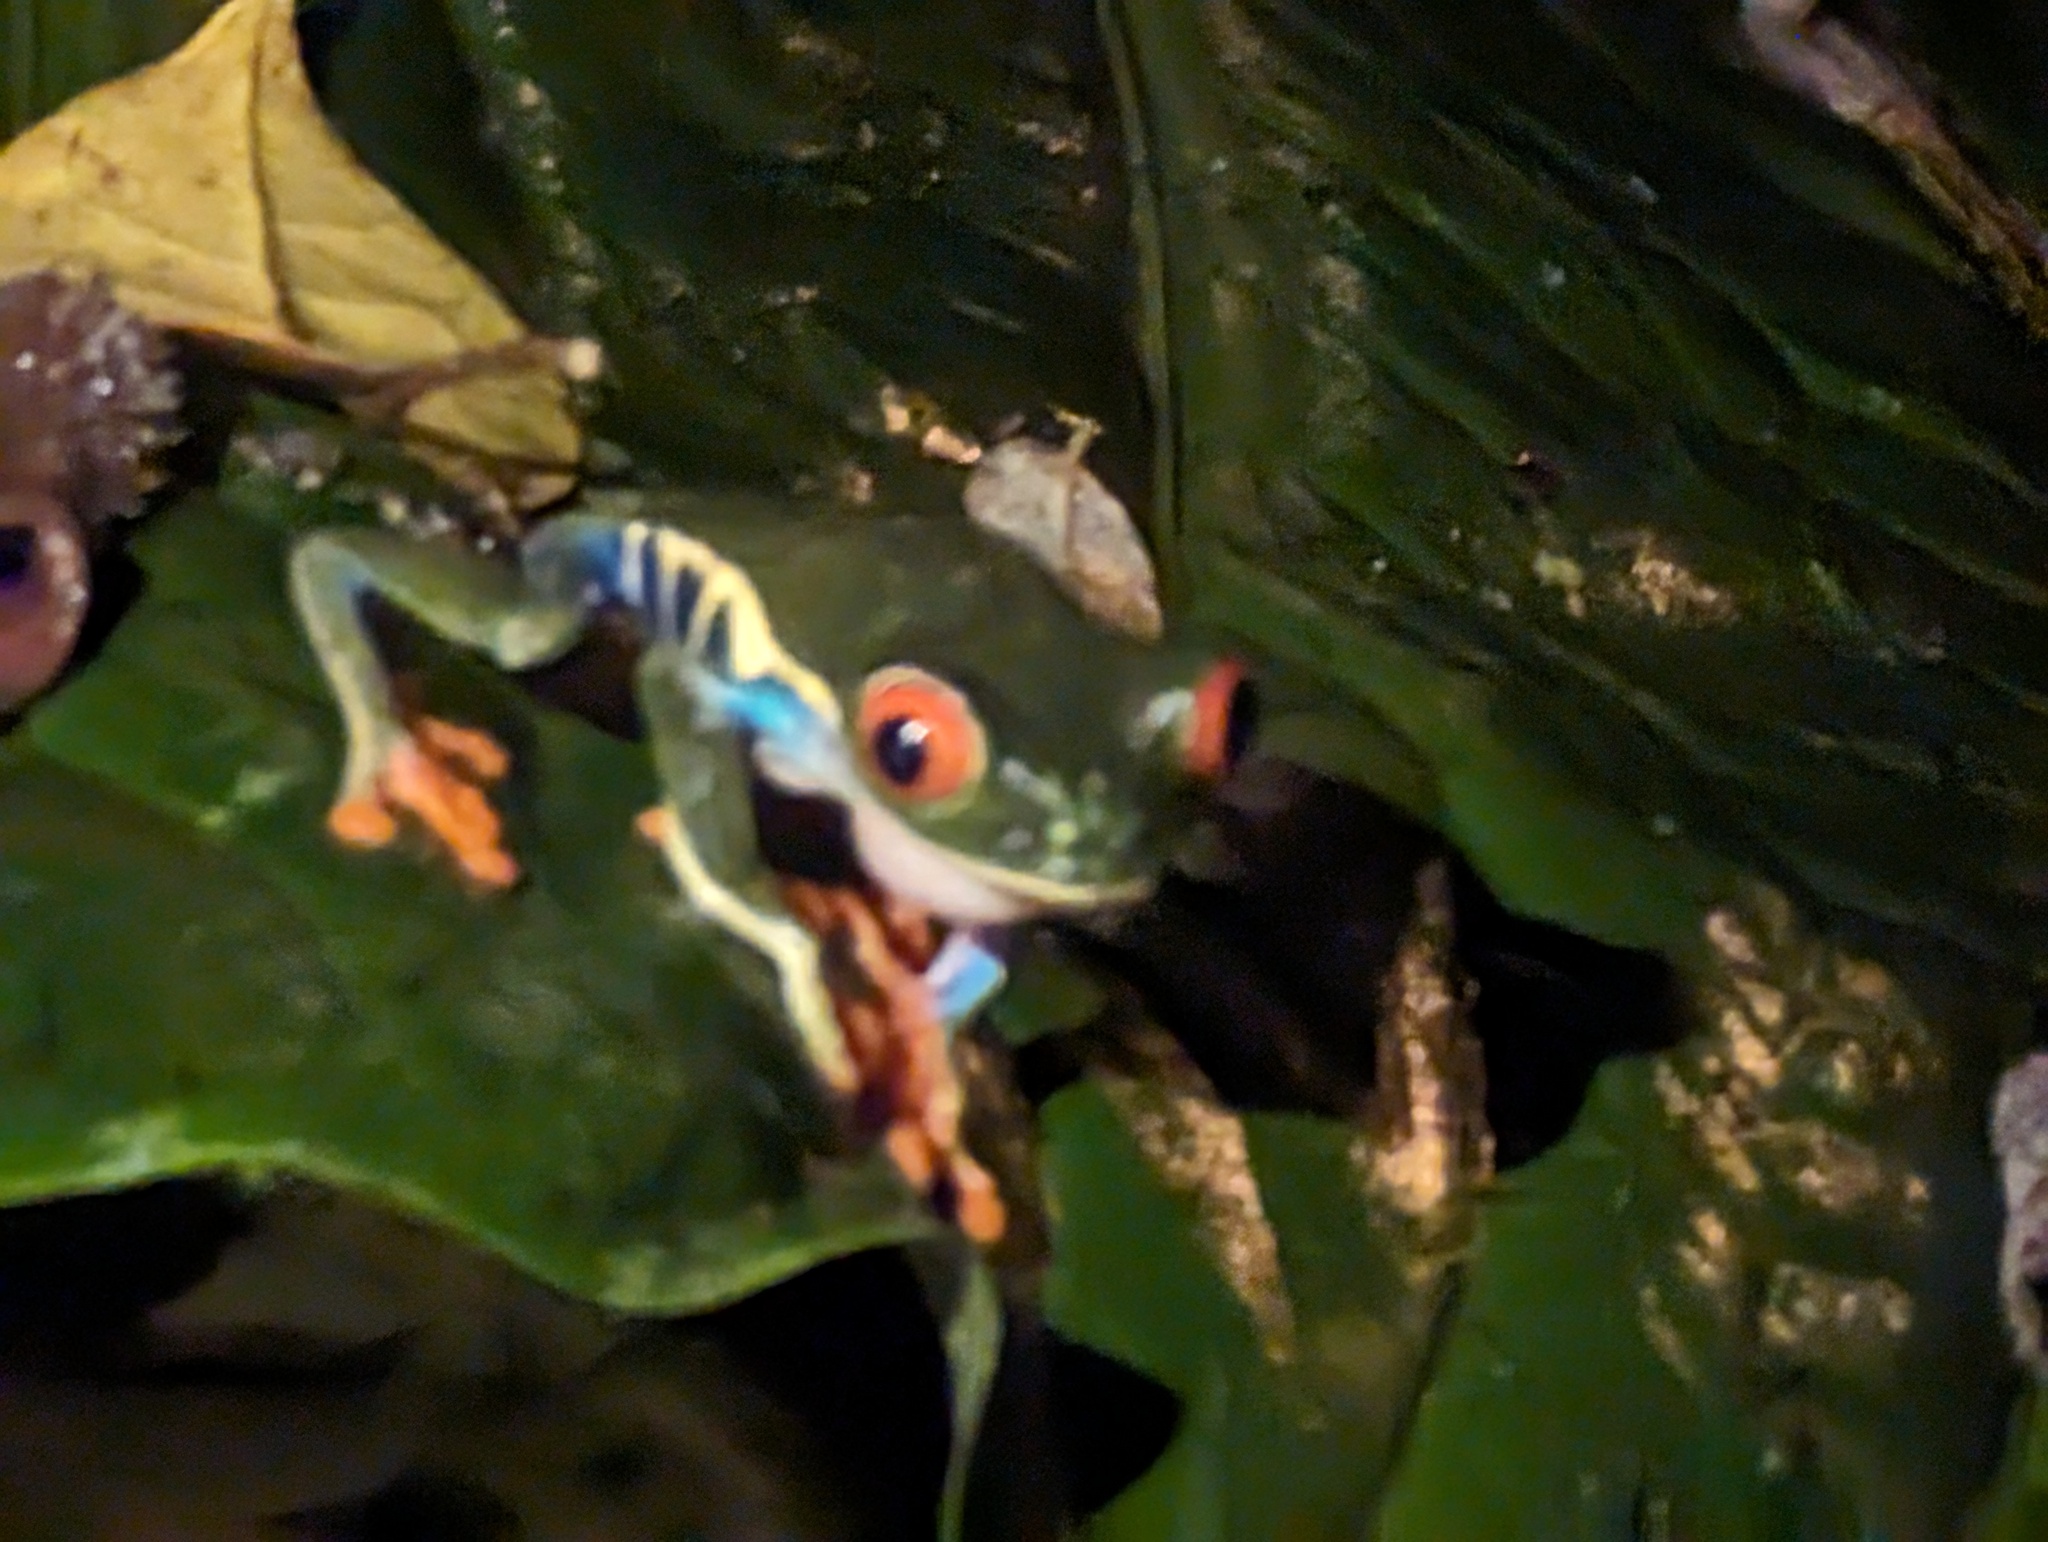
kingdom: Animalia
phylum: Chordata
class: Amphibia
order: Anura
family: Phyllomedusidae
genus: Agalychnis
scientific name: Agalychnis callidryas
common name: Red-eyed treefrog
